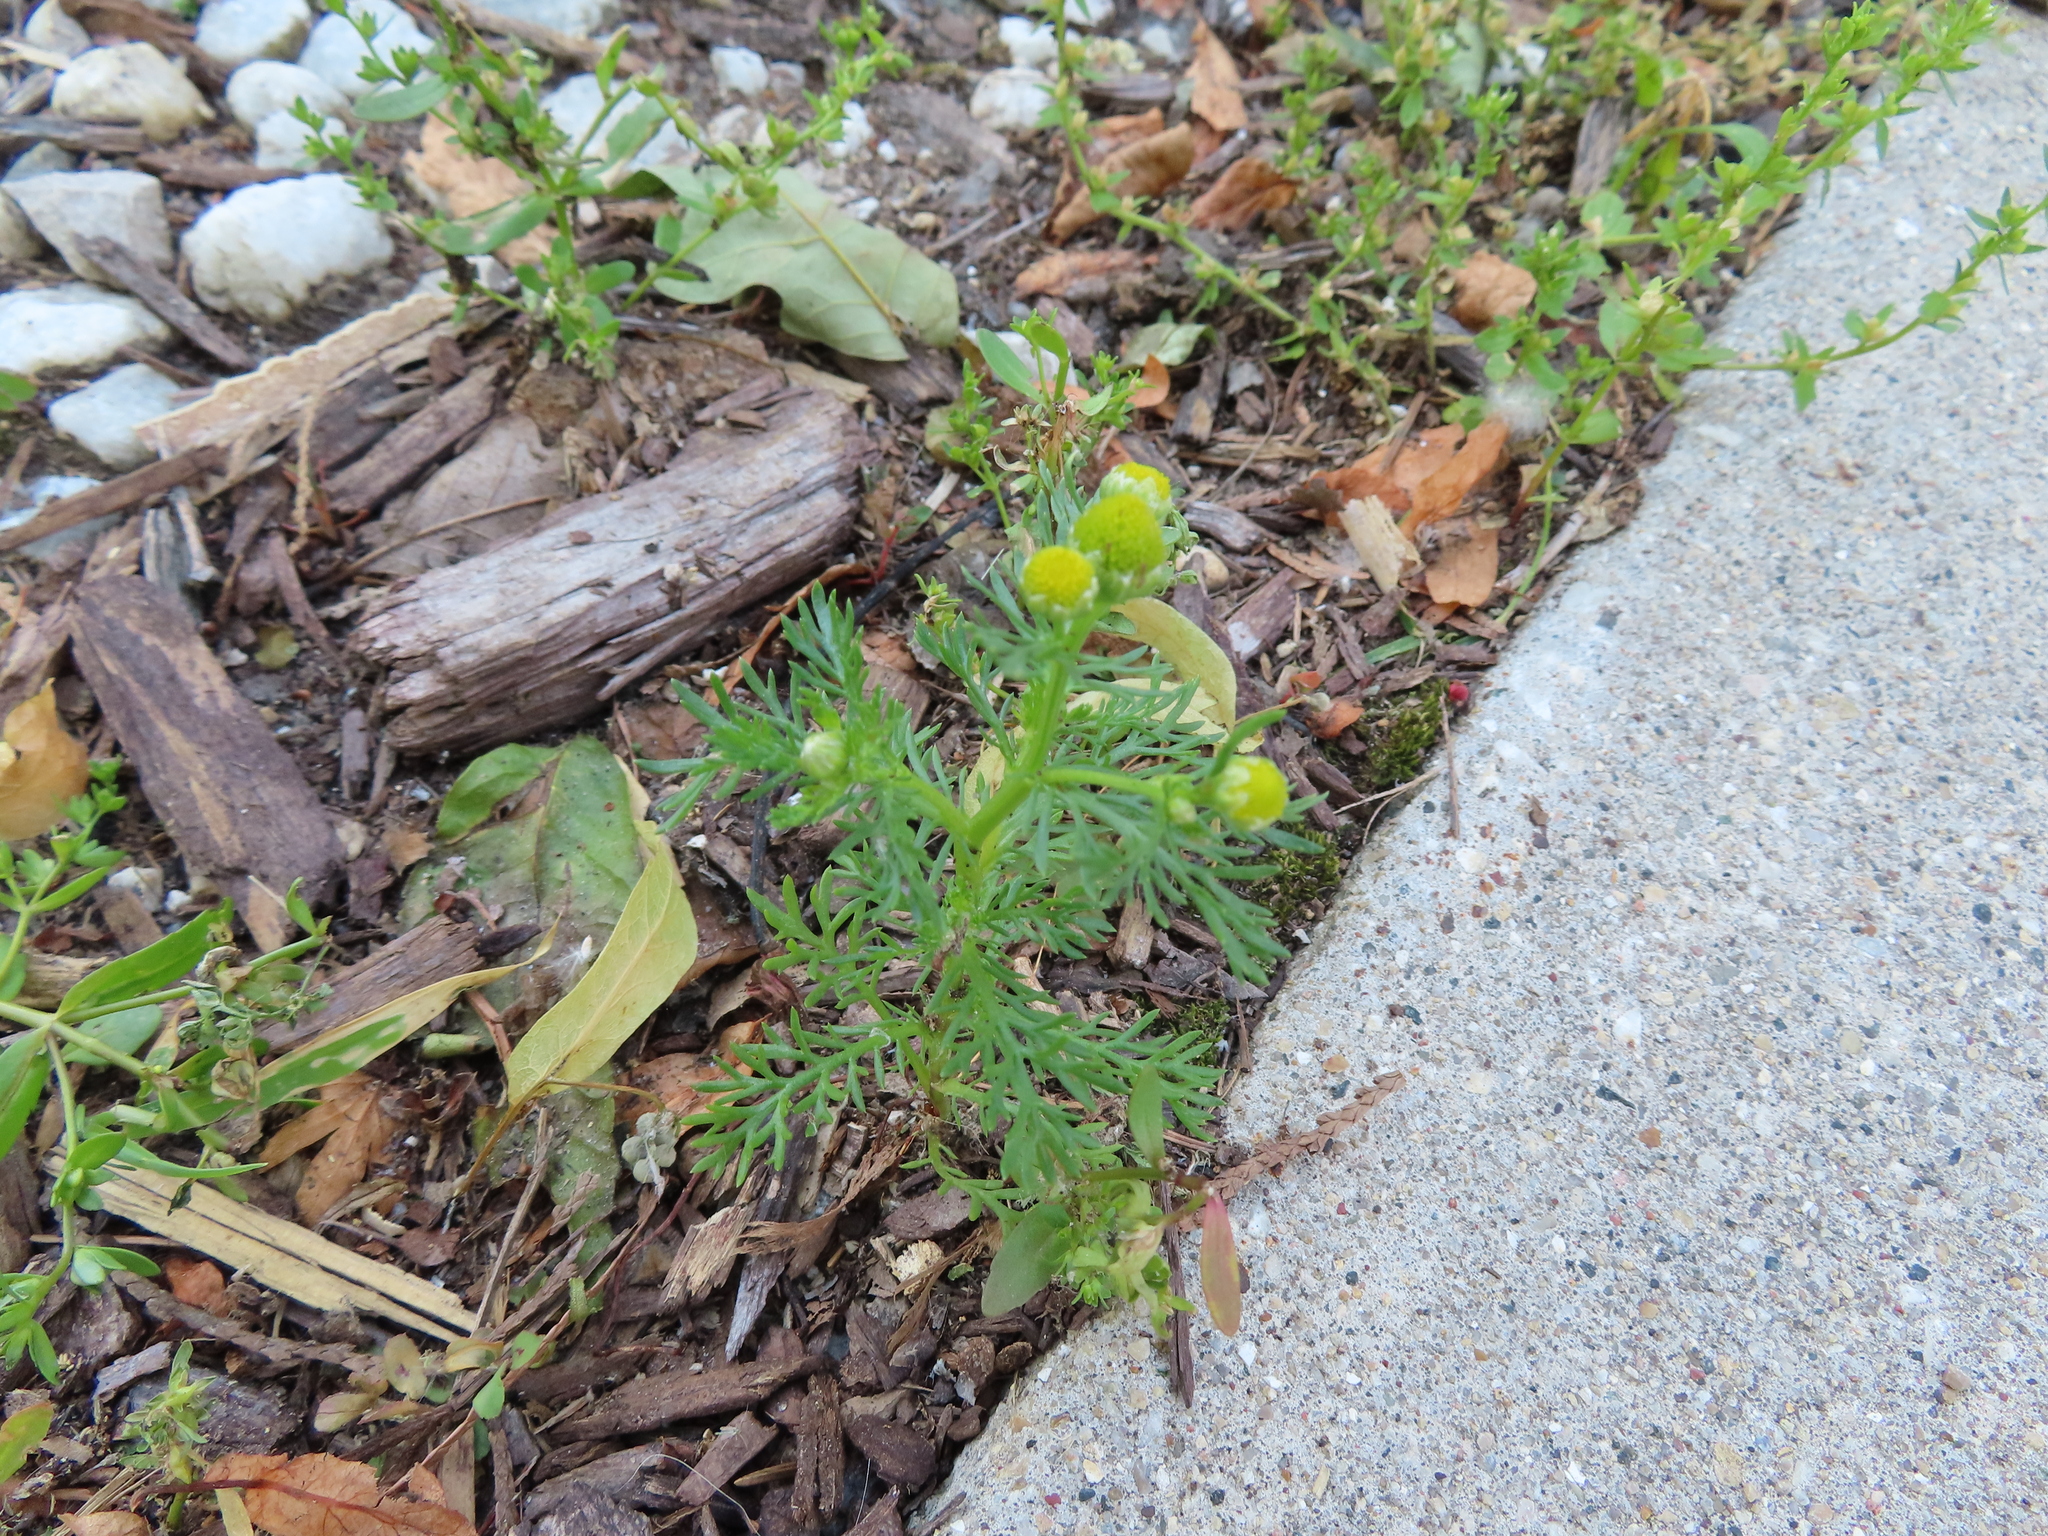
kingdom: Plantae
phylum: Tracheophyta
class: Magnoliopsida
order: Asterales
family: Asteraceae
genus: Matricaria
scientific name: Matricaria discoidea
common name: Disc mayweed
